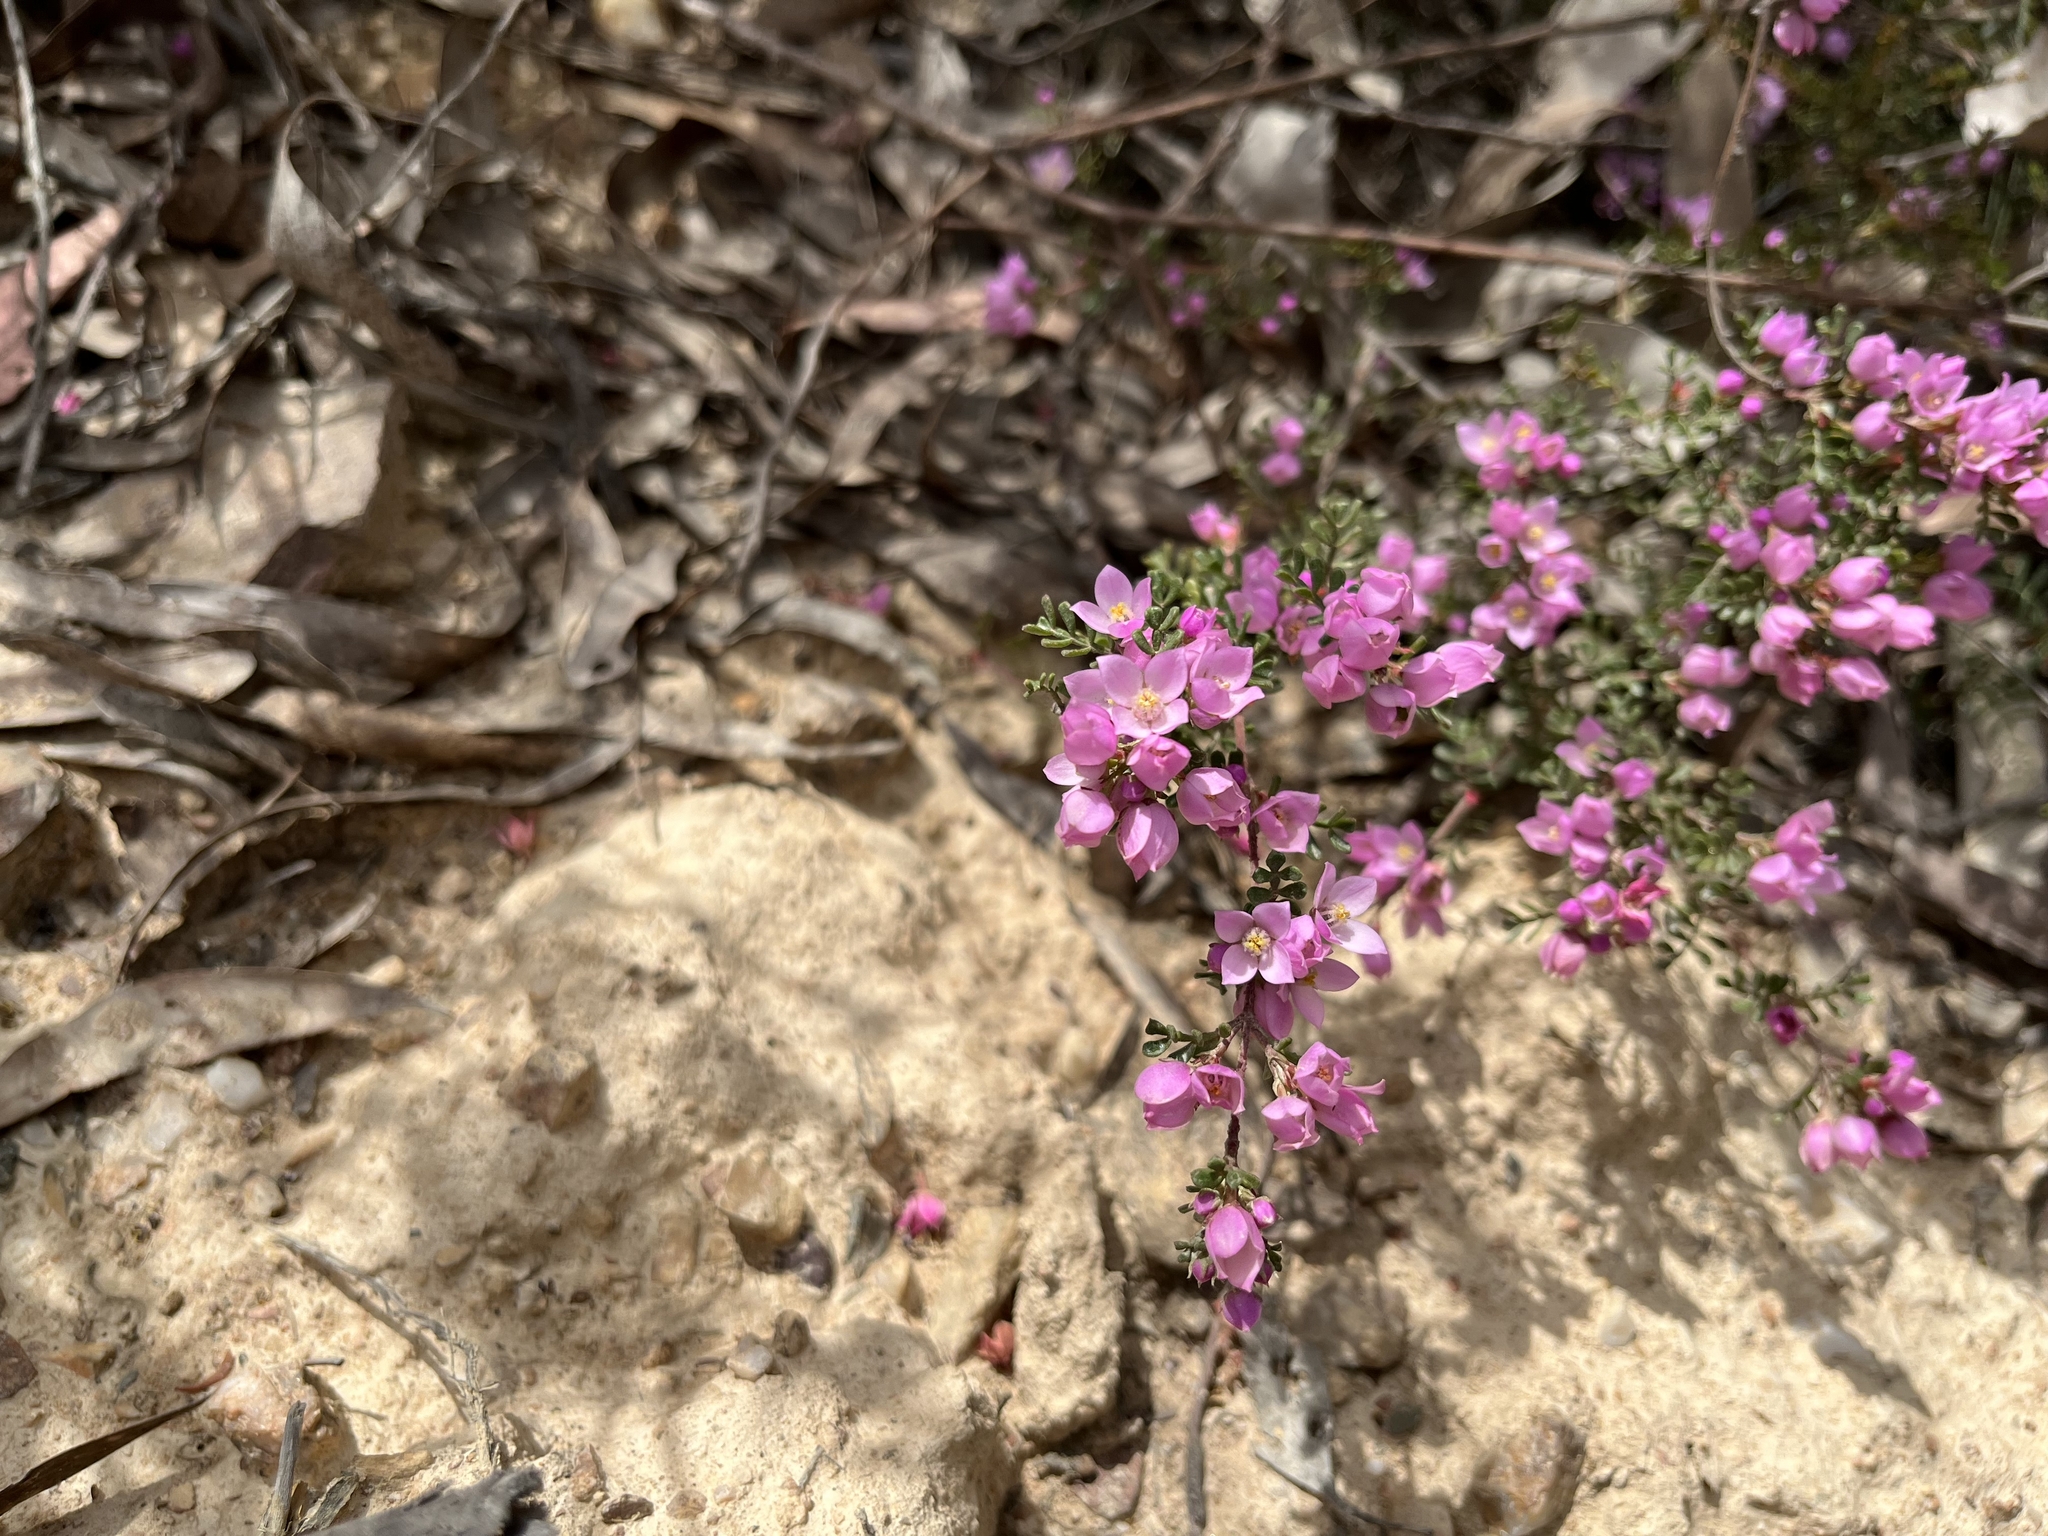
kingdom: Plantae
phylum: Tracheophyta
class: Magnoliopsida
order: Sapindales
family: Rutaceae
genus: Boronia
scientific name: Boronia microphylla
